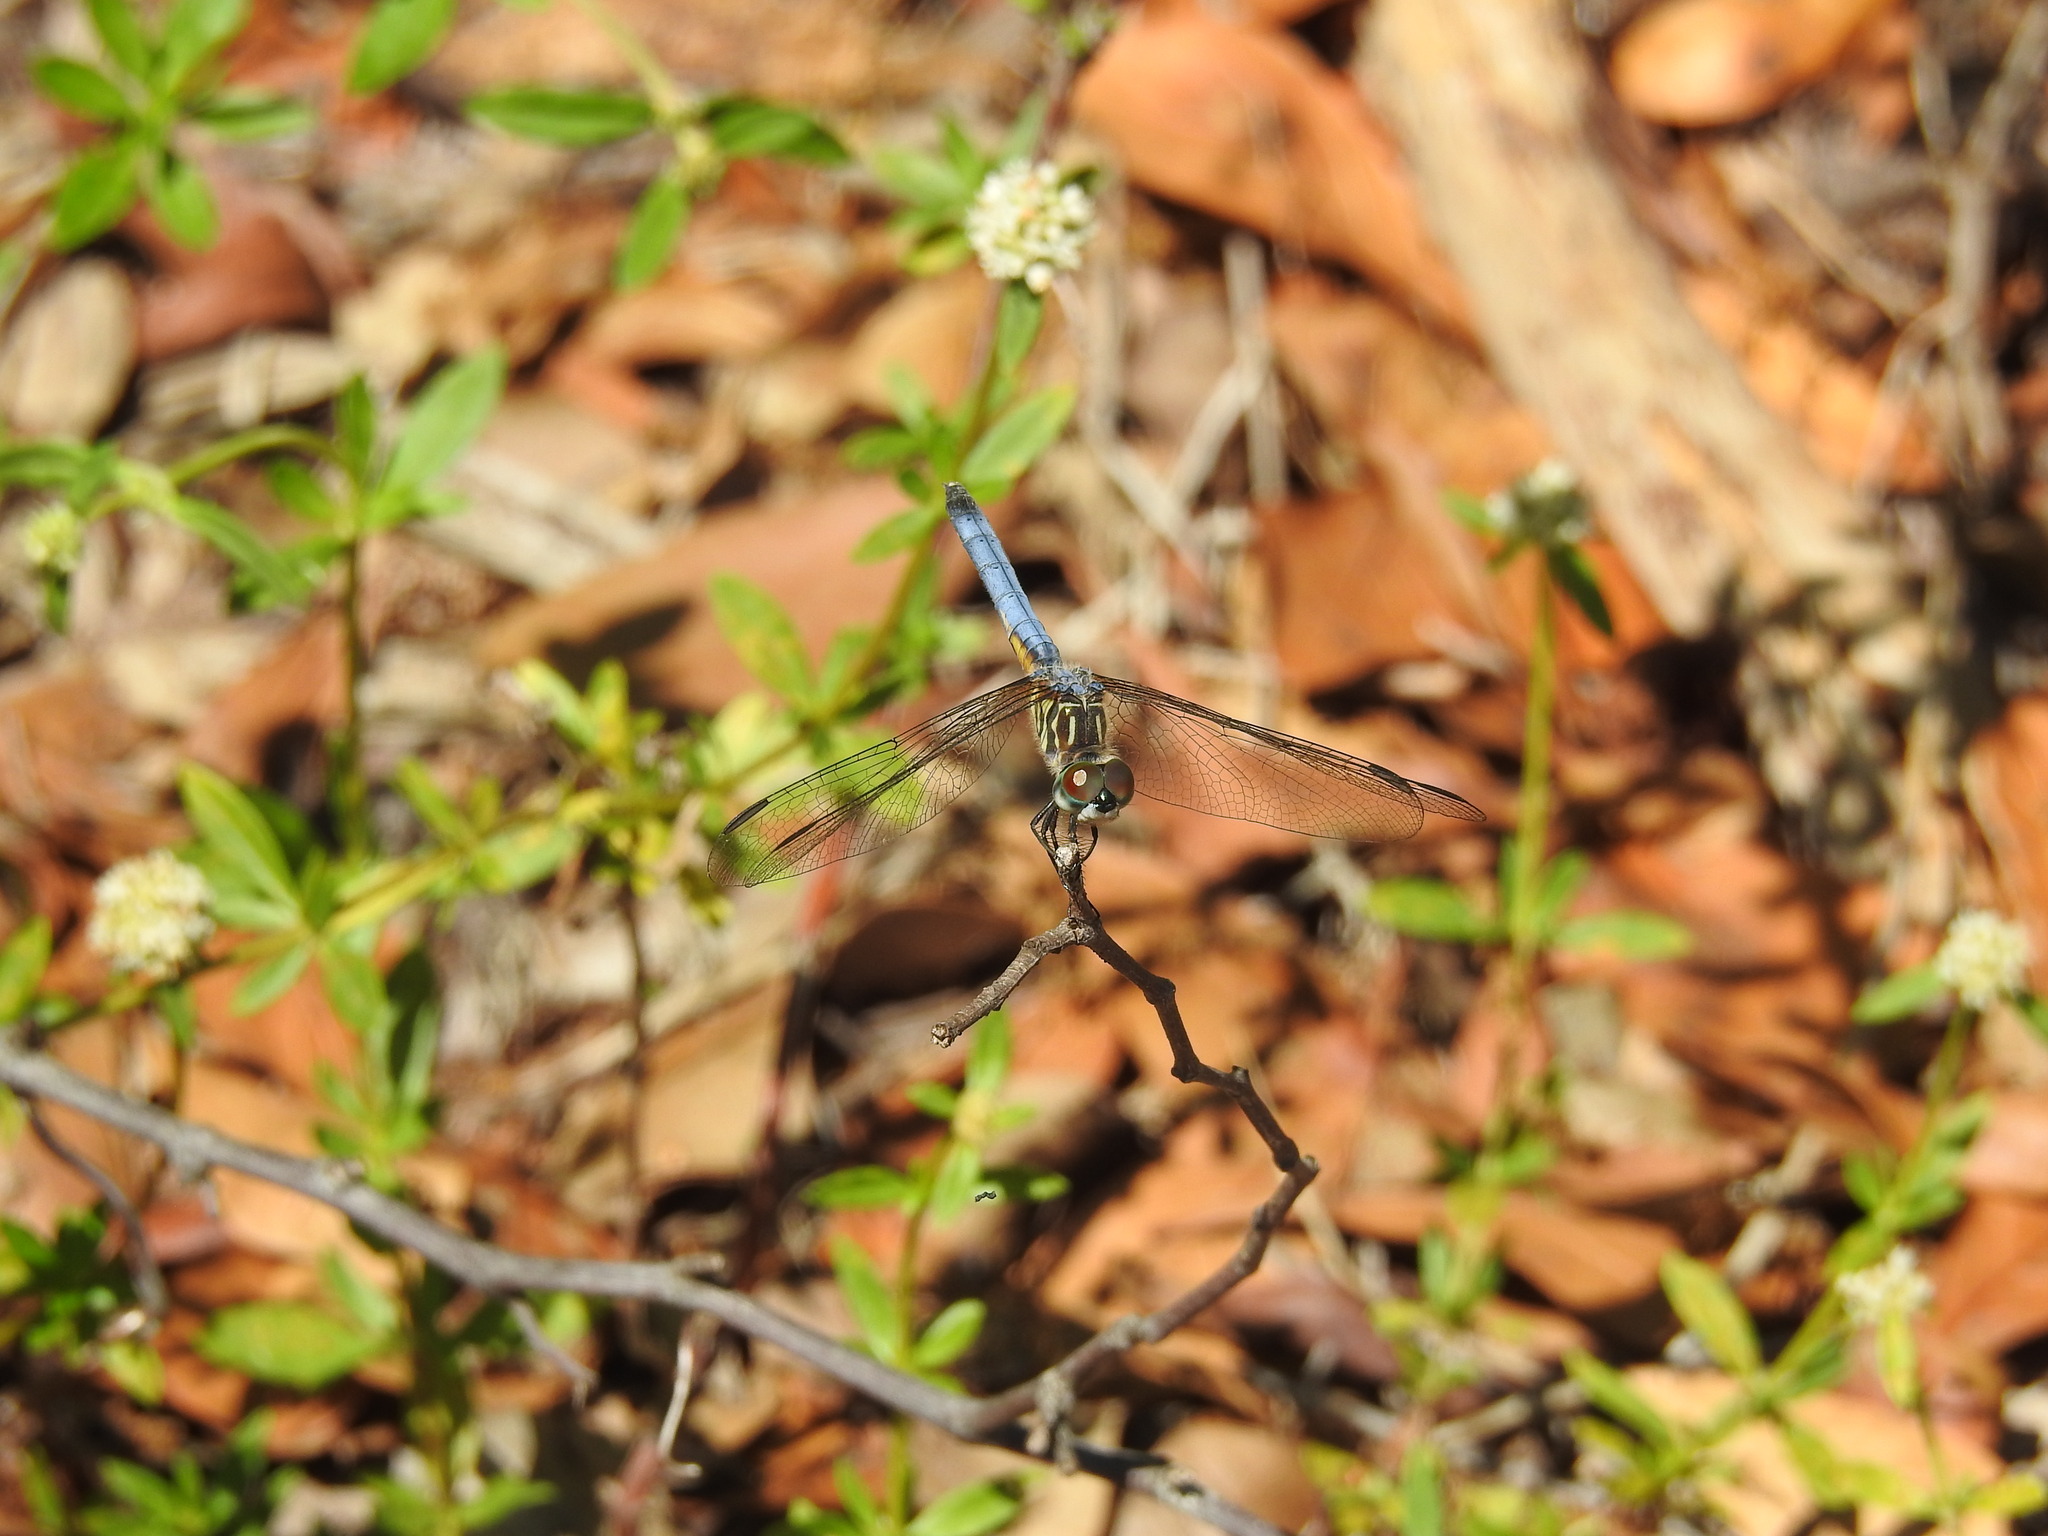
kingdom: Animalia
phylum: Arthropoda
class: Insecta
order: Odonata
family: Libellulidae
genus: Pachydiplax
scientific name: Pachydiplax longipennis
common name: Blue dasher
